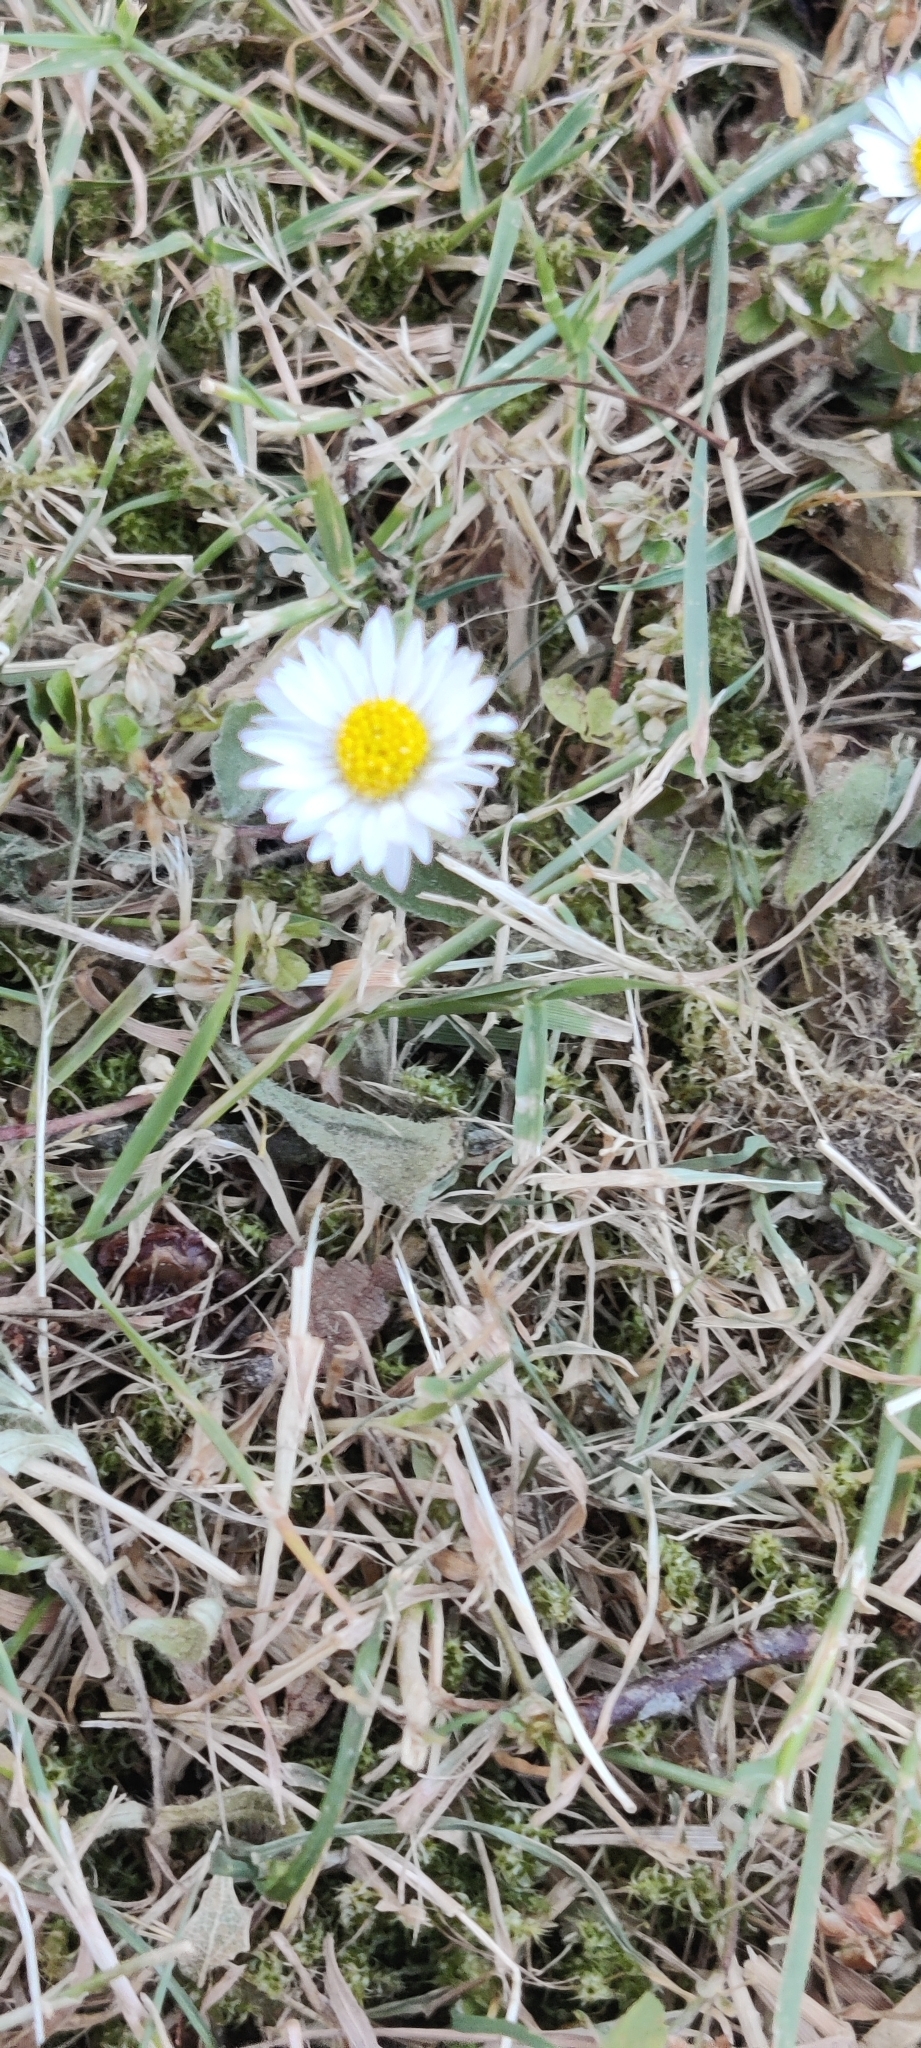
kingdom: Plantae
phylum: Tracheophyta
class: Magnoliopsida
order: Asterales
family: Asteraceae
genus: Bellis
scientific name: Bellis perennis
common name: Lawndaisy
